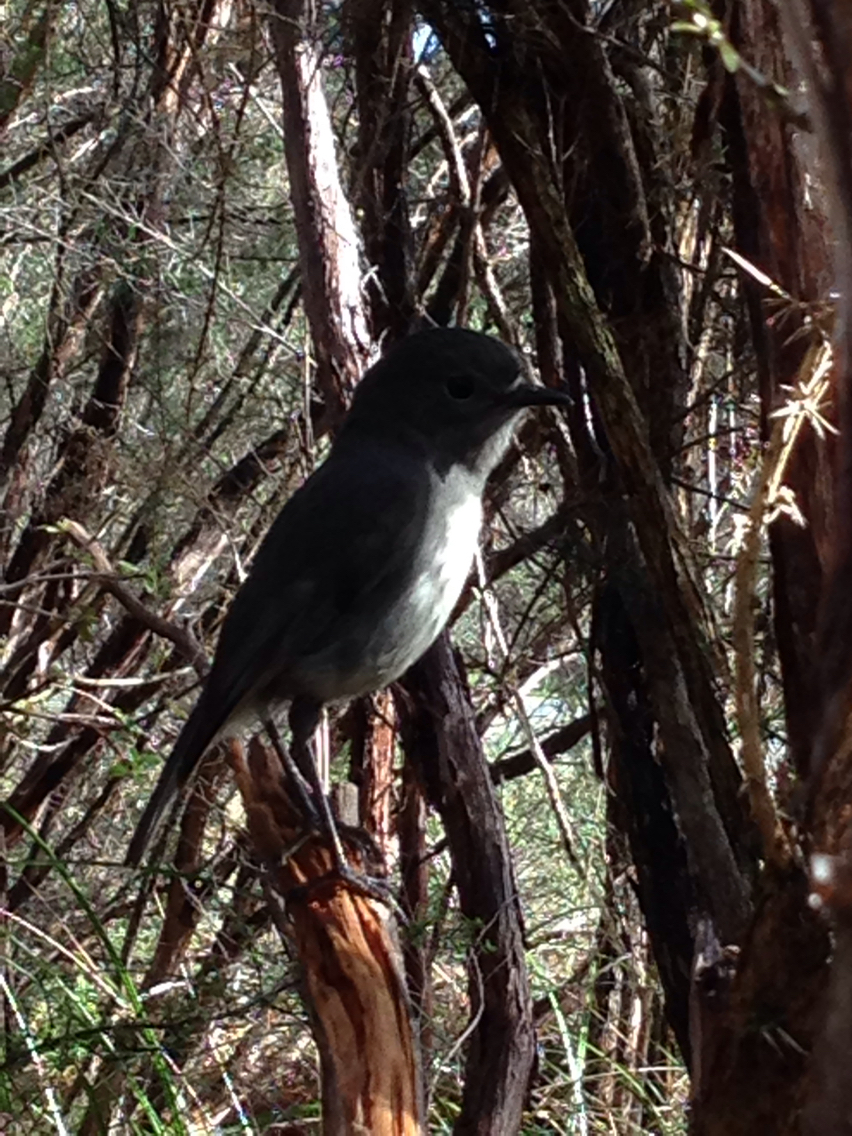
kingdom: Animalia
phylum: Chordata
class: Aves
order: Passeriformes
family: Petroicidae
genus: Petroica
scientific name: Petroica australis
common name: New zealand robin
